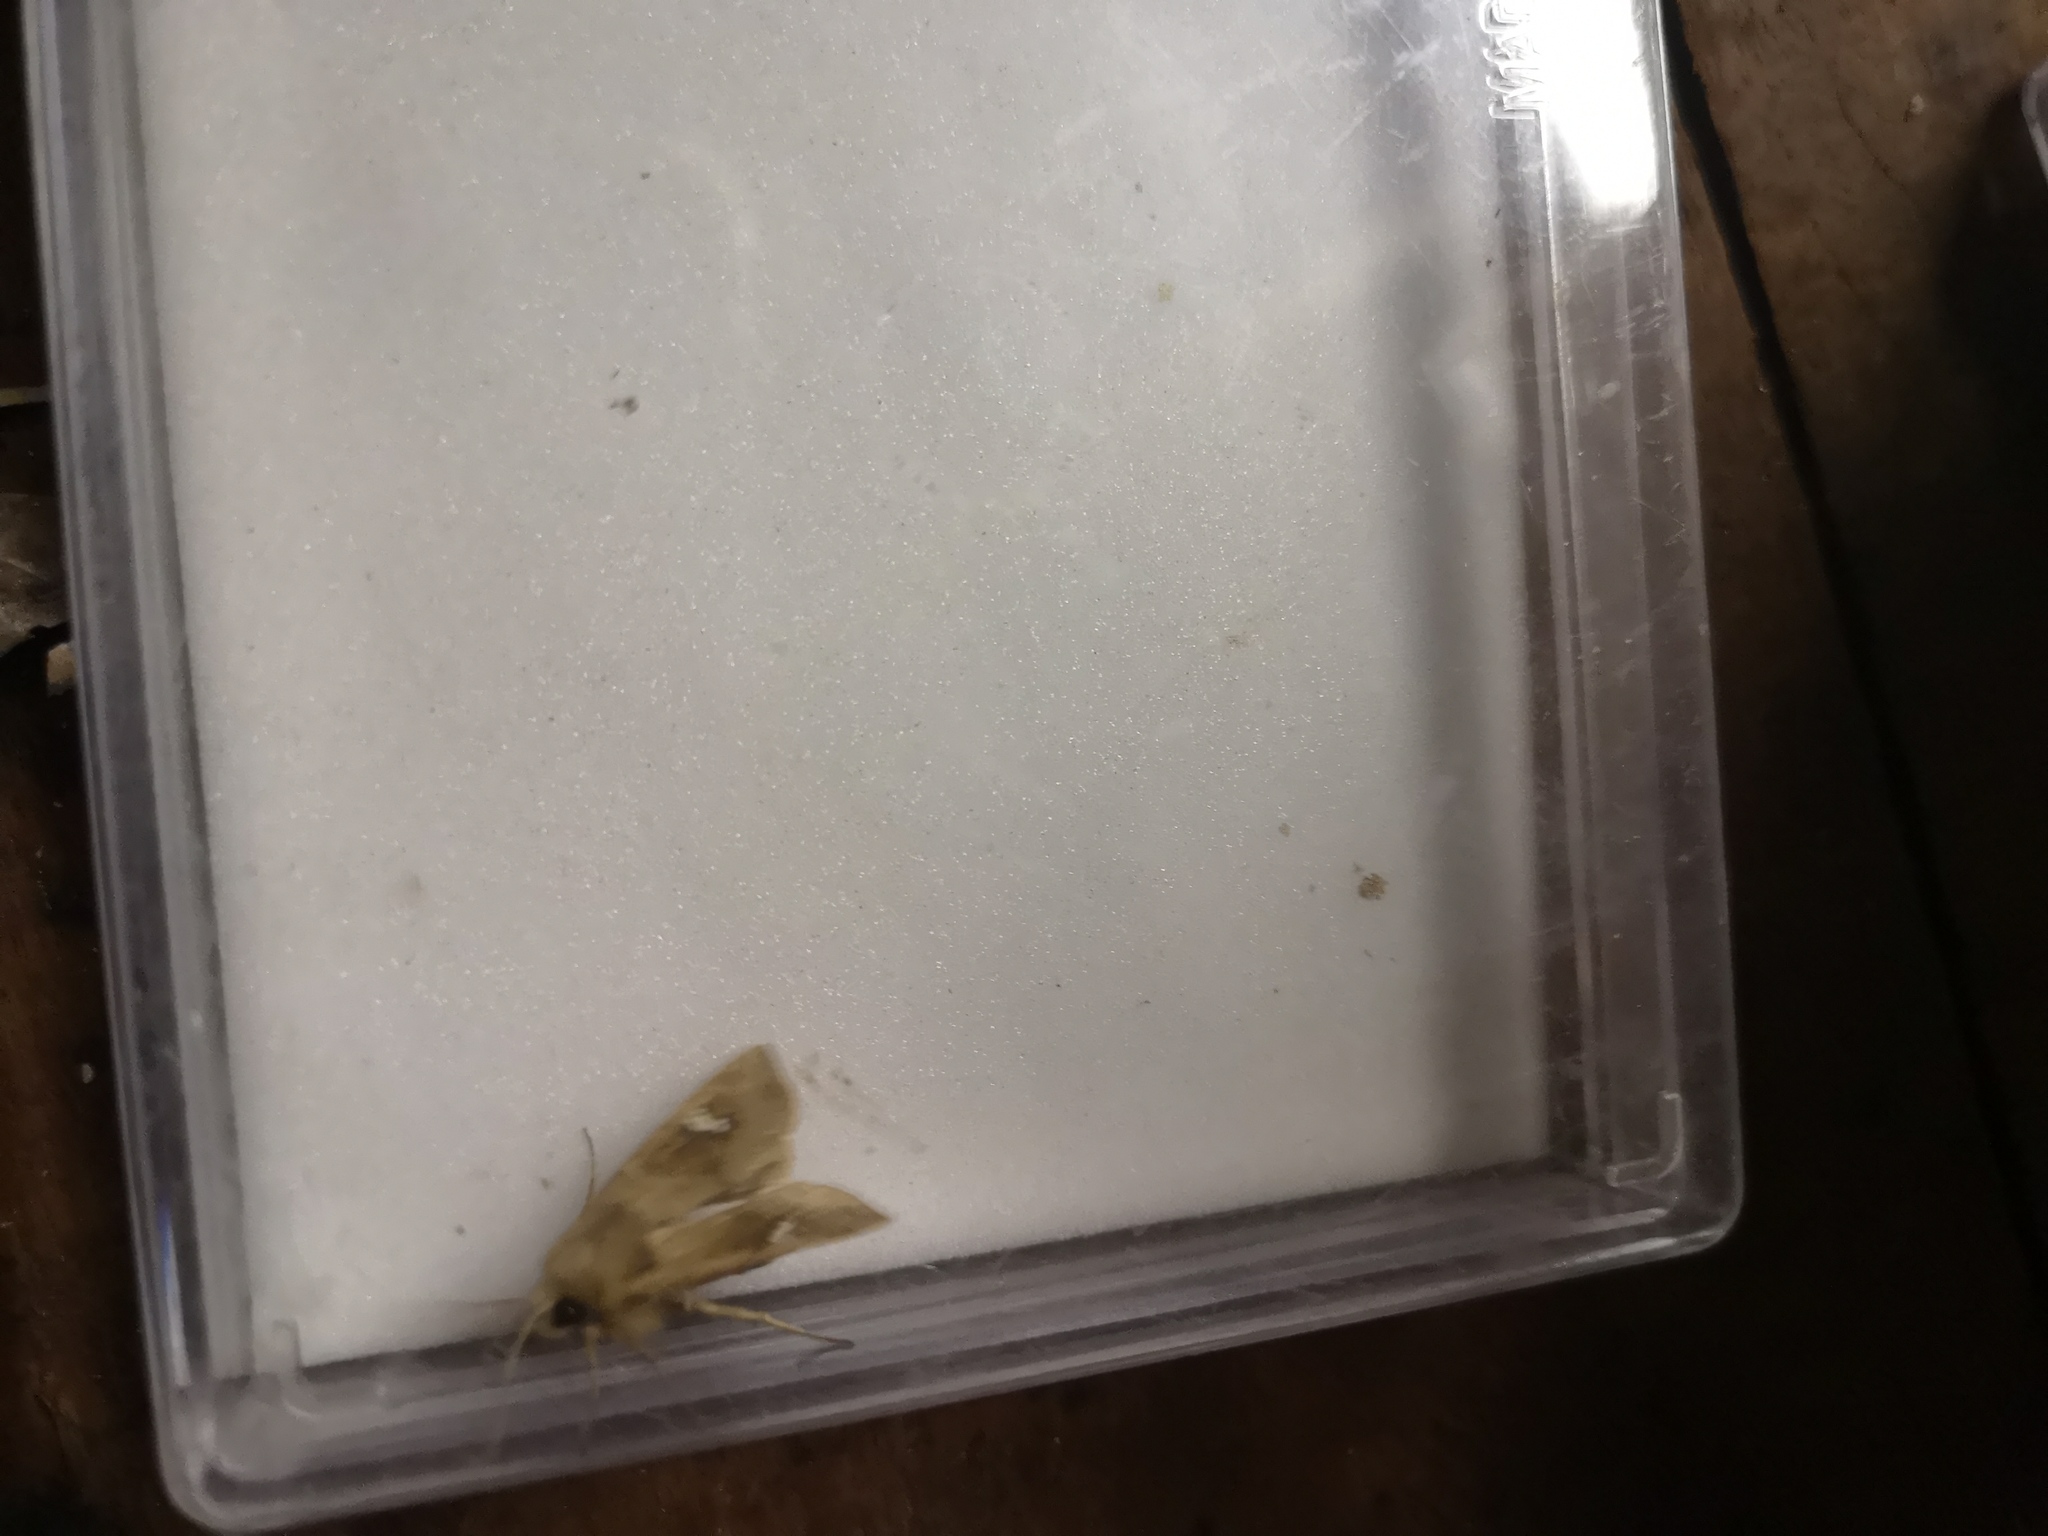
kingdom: Animalia
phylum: Arthropoda
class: Insecta
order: Lepidoptera
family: Noctuidae
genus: Amphipoea
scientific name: Amphipoea
